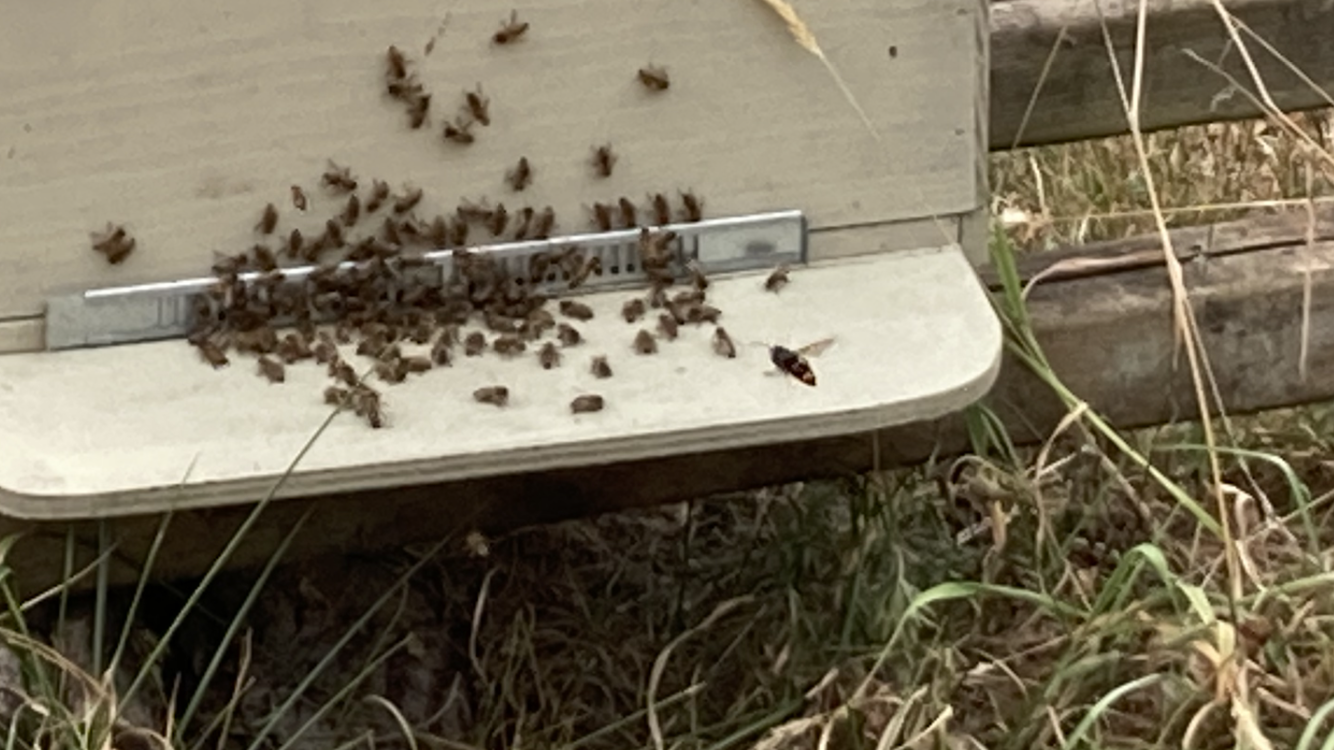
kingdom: Animalia
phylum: Arthropoda
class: Insecta
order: Hymenoptera
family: Vespidae
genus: Vespa
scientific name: Vespa velutina
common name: Asian hornet
